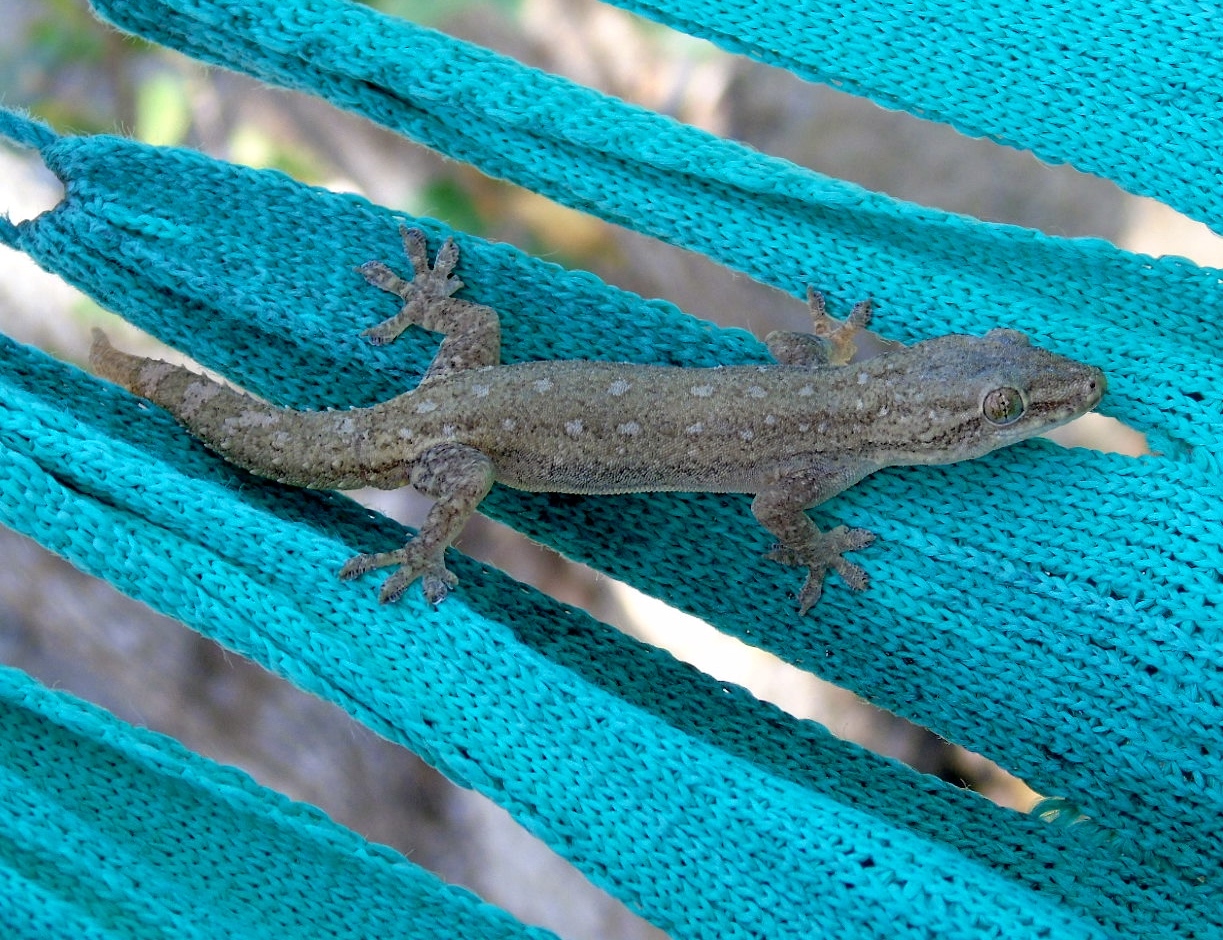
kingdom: Animalia
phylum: Chordata
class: Squamata
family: Gekkonidae
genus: Hemidactylus
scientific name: Hemidactylus frenatus
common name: Common house gecko
